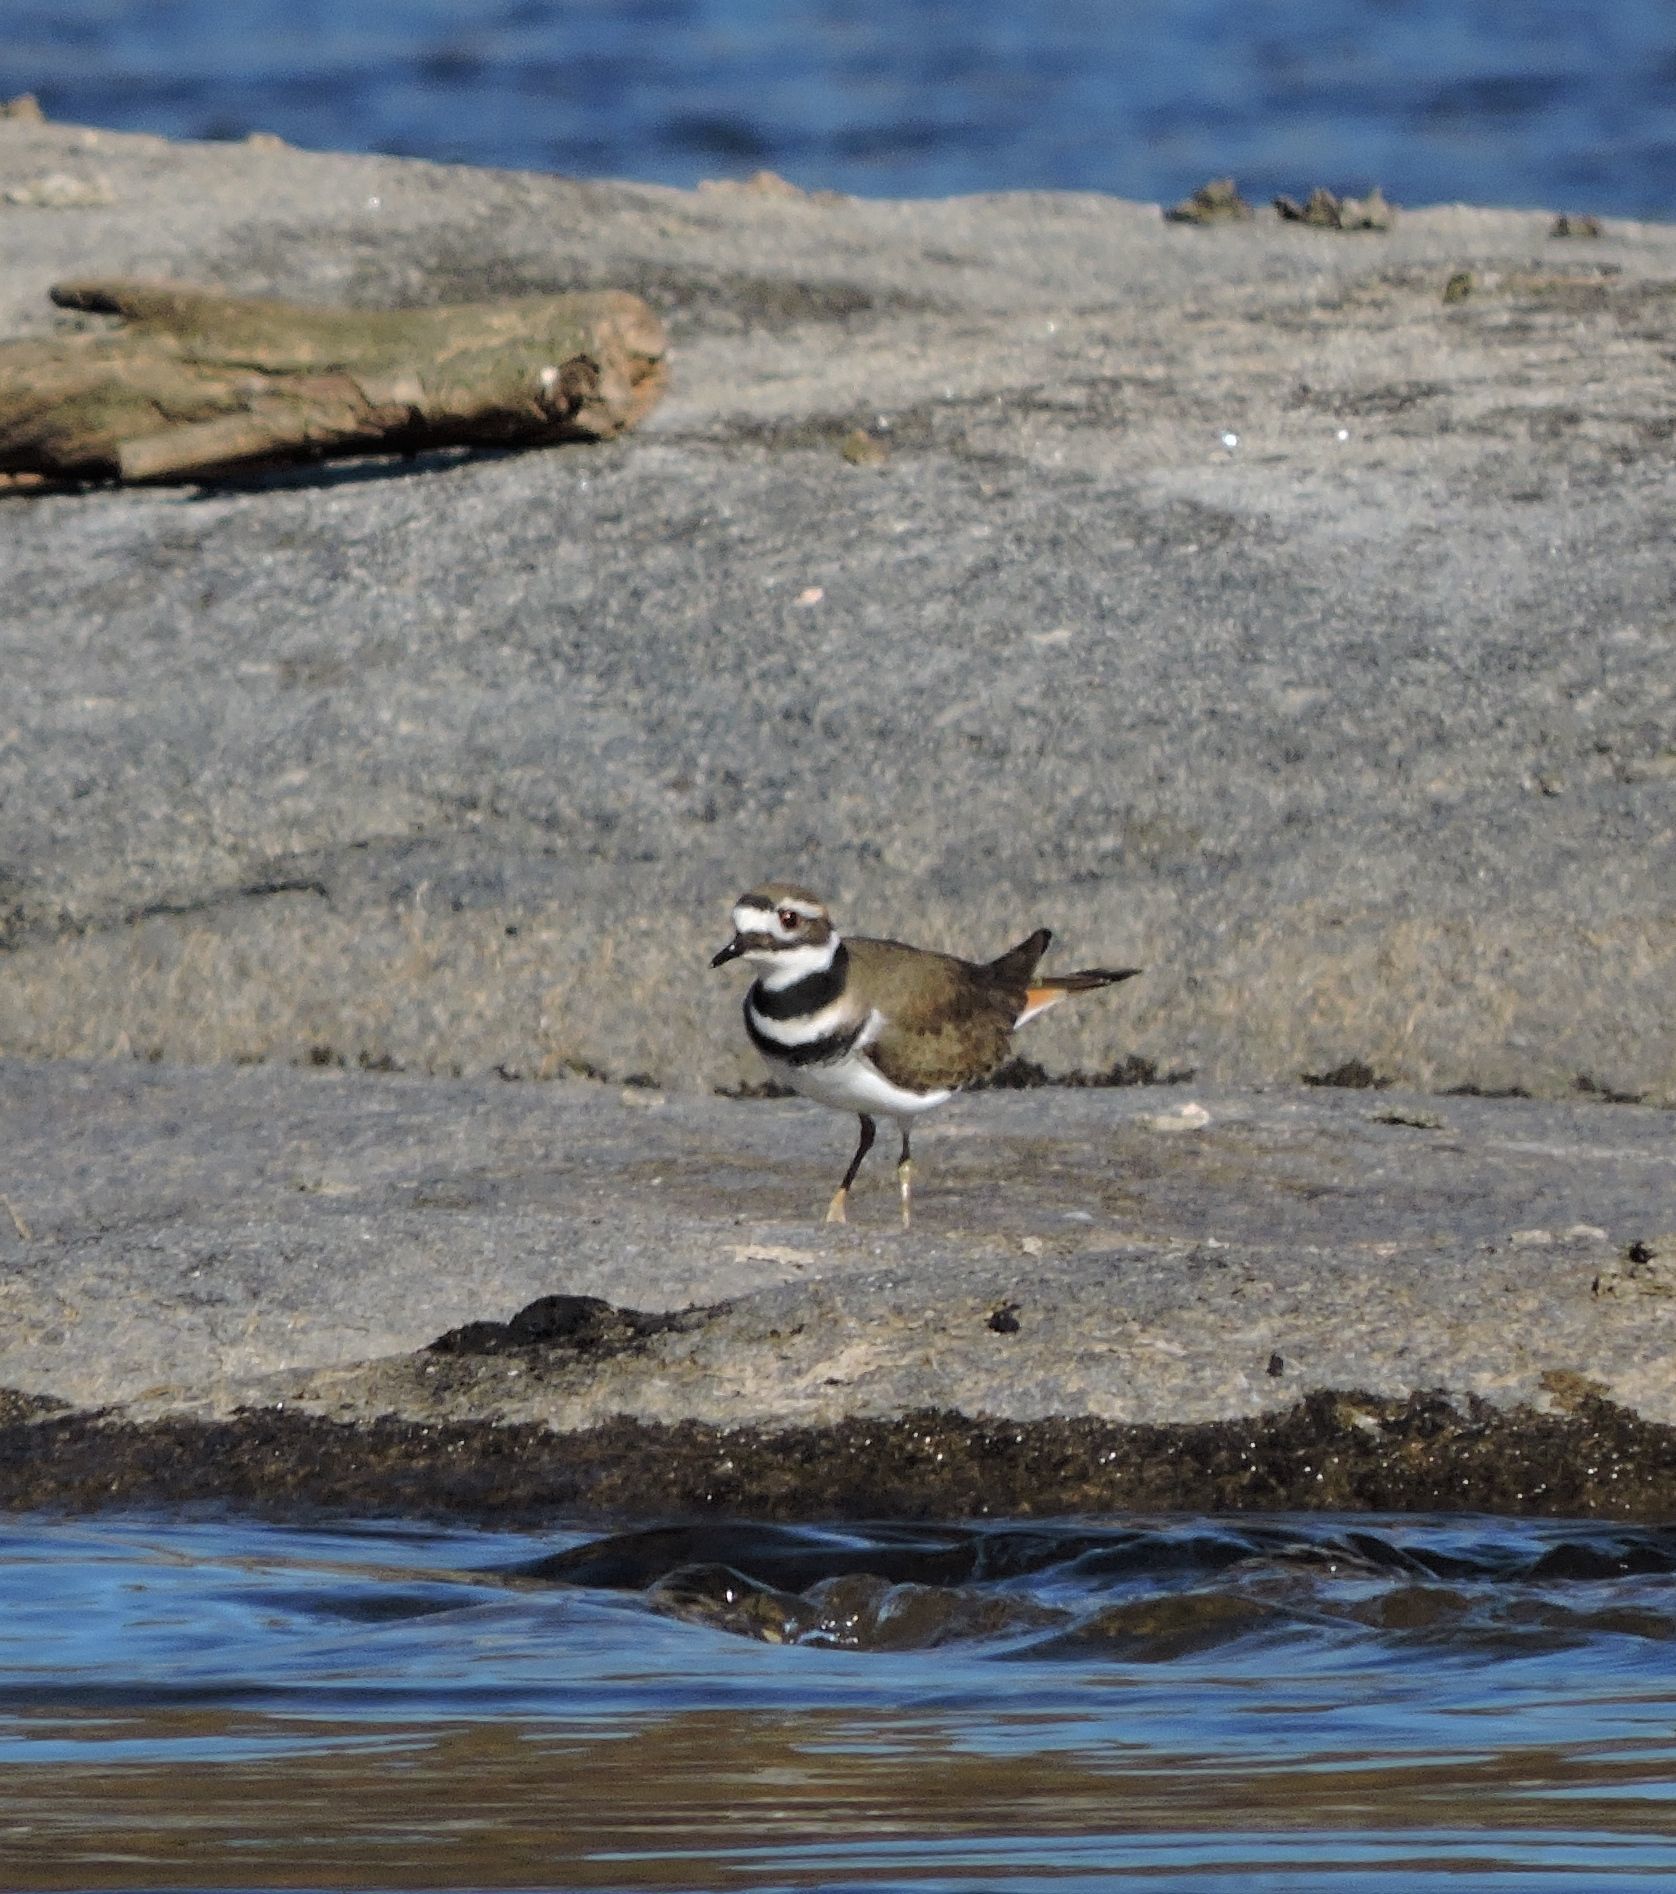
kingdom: Animalia
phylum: Chordata
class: Aves
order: Charadriiformes
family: Charadriidae
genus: Charadrius
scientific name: Charadrius vociferus
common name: Killdeer
